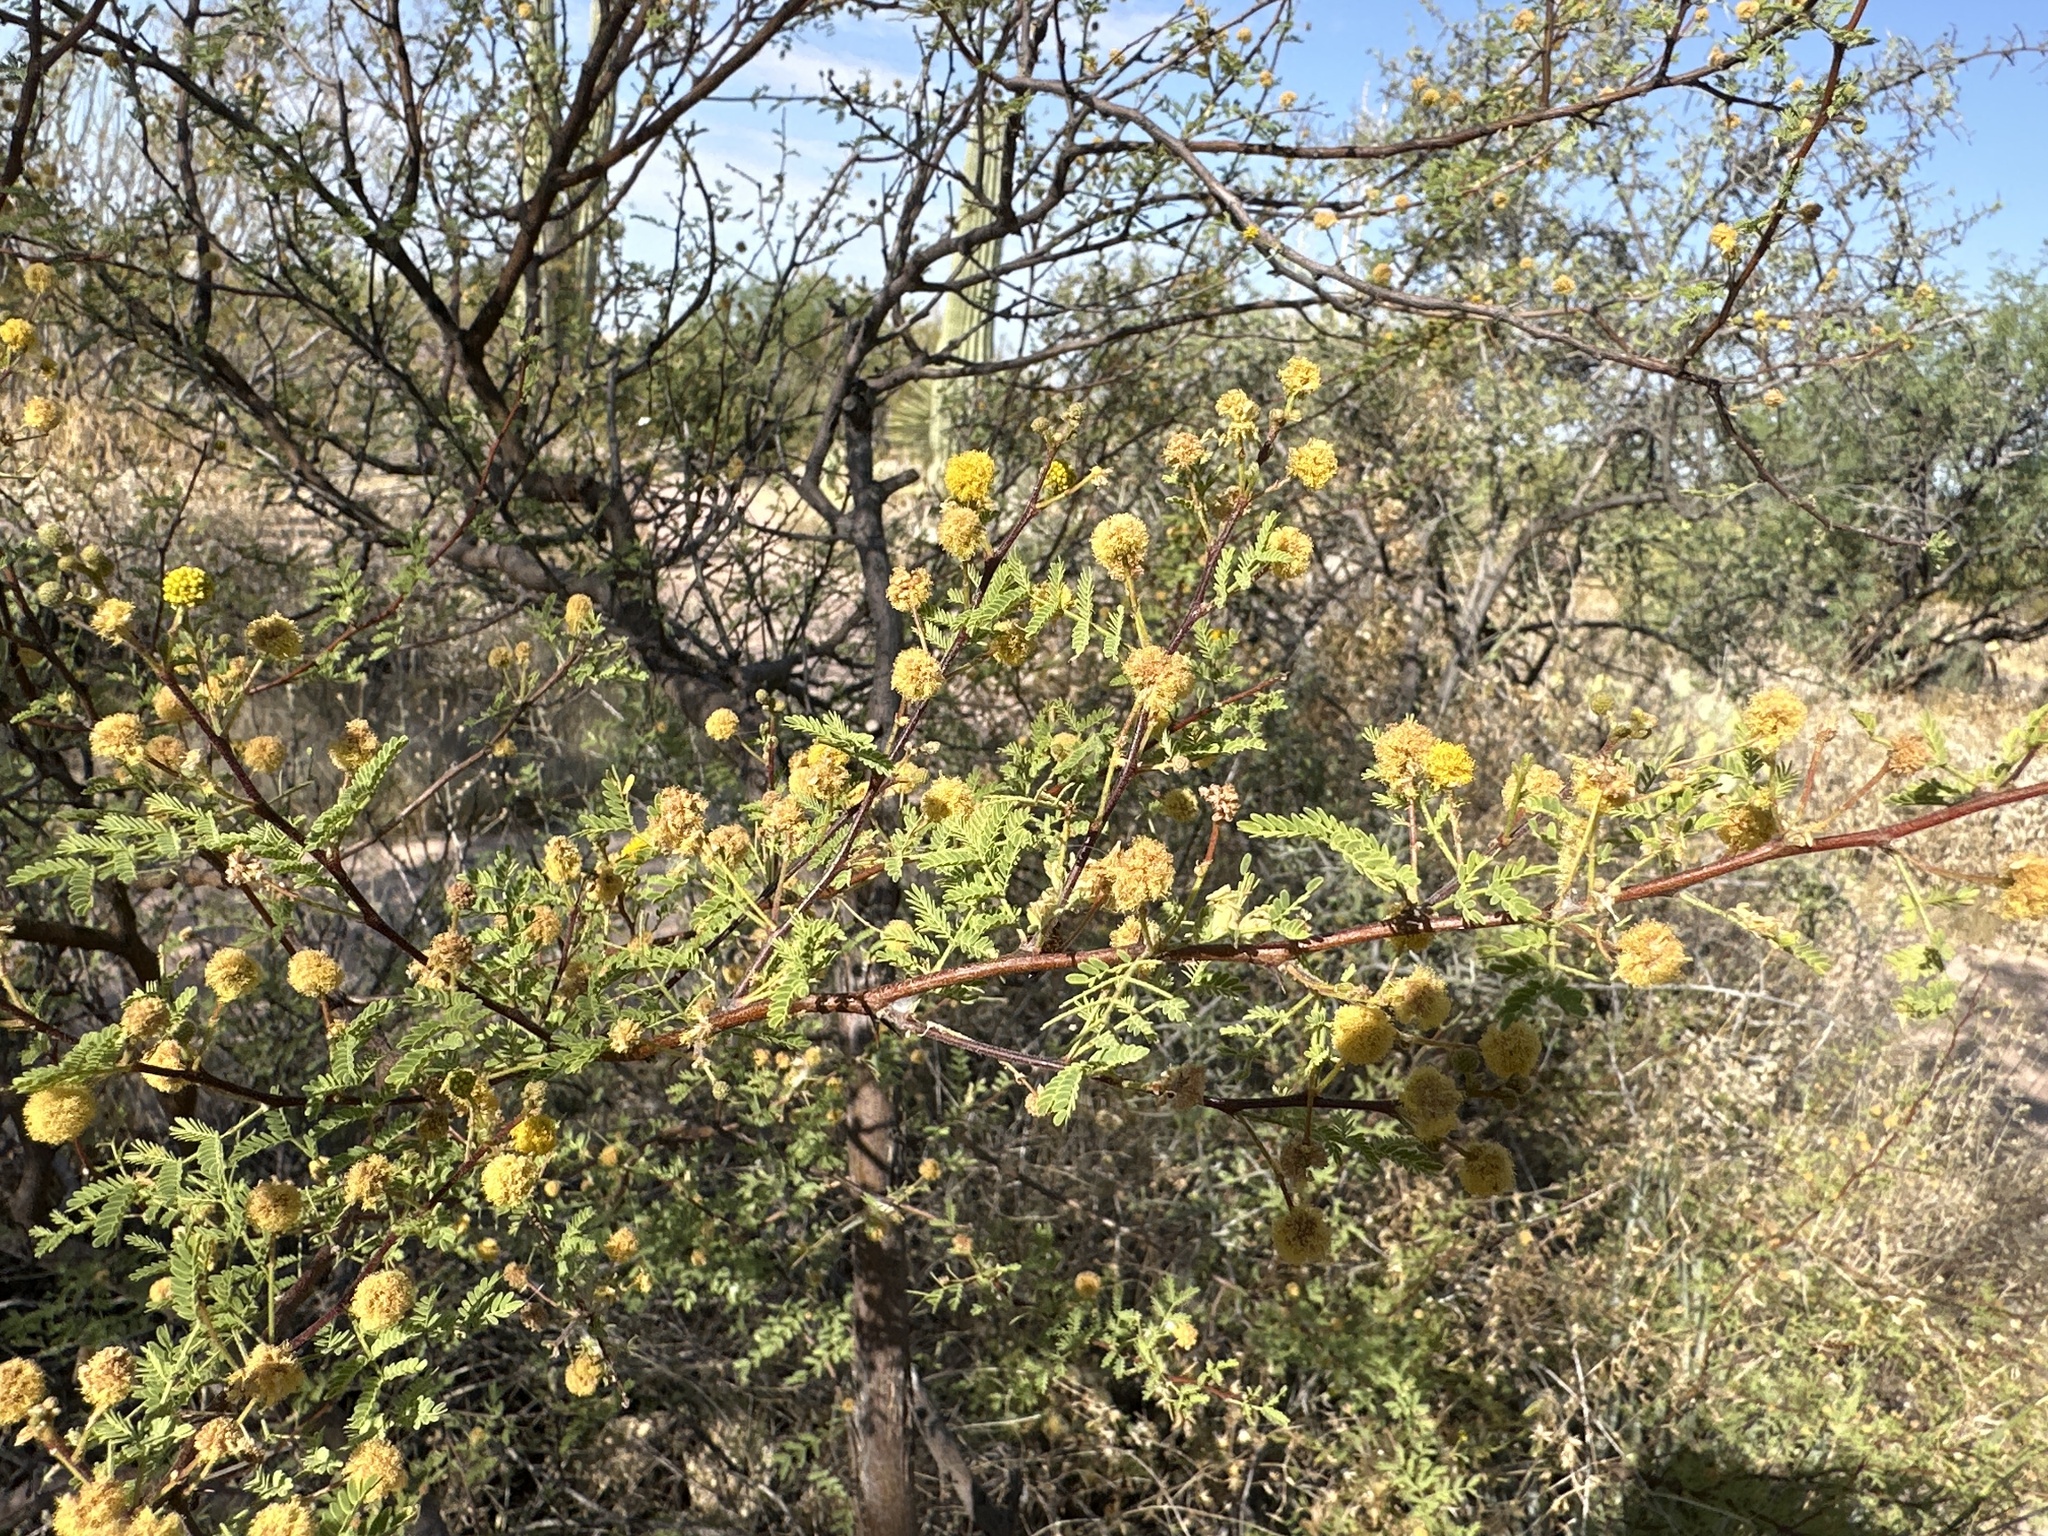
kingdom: Plantae
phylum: Tracheophyta
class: Magnoliopsida
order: Fabales
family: Fabaceae
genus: Vachellia
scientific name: Vachellia constricta
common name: Mescat acacia
